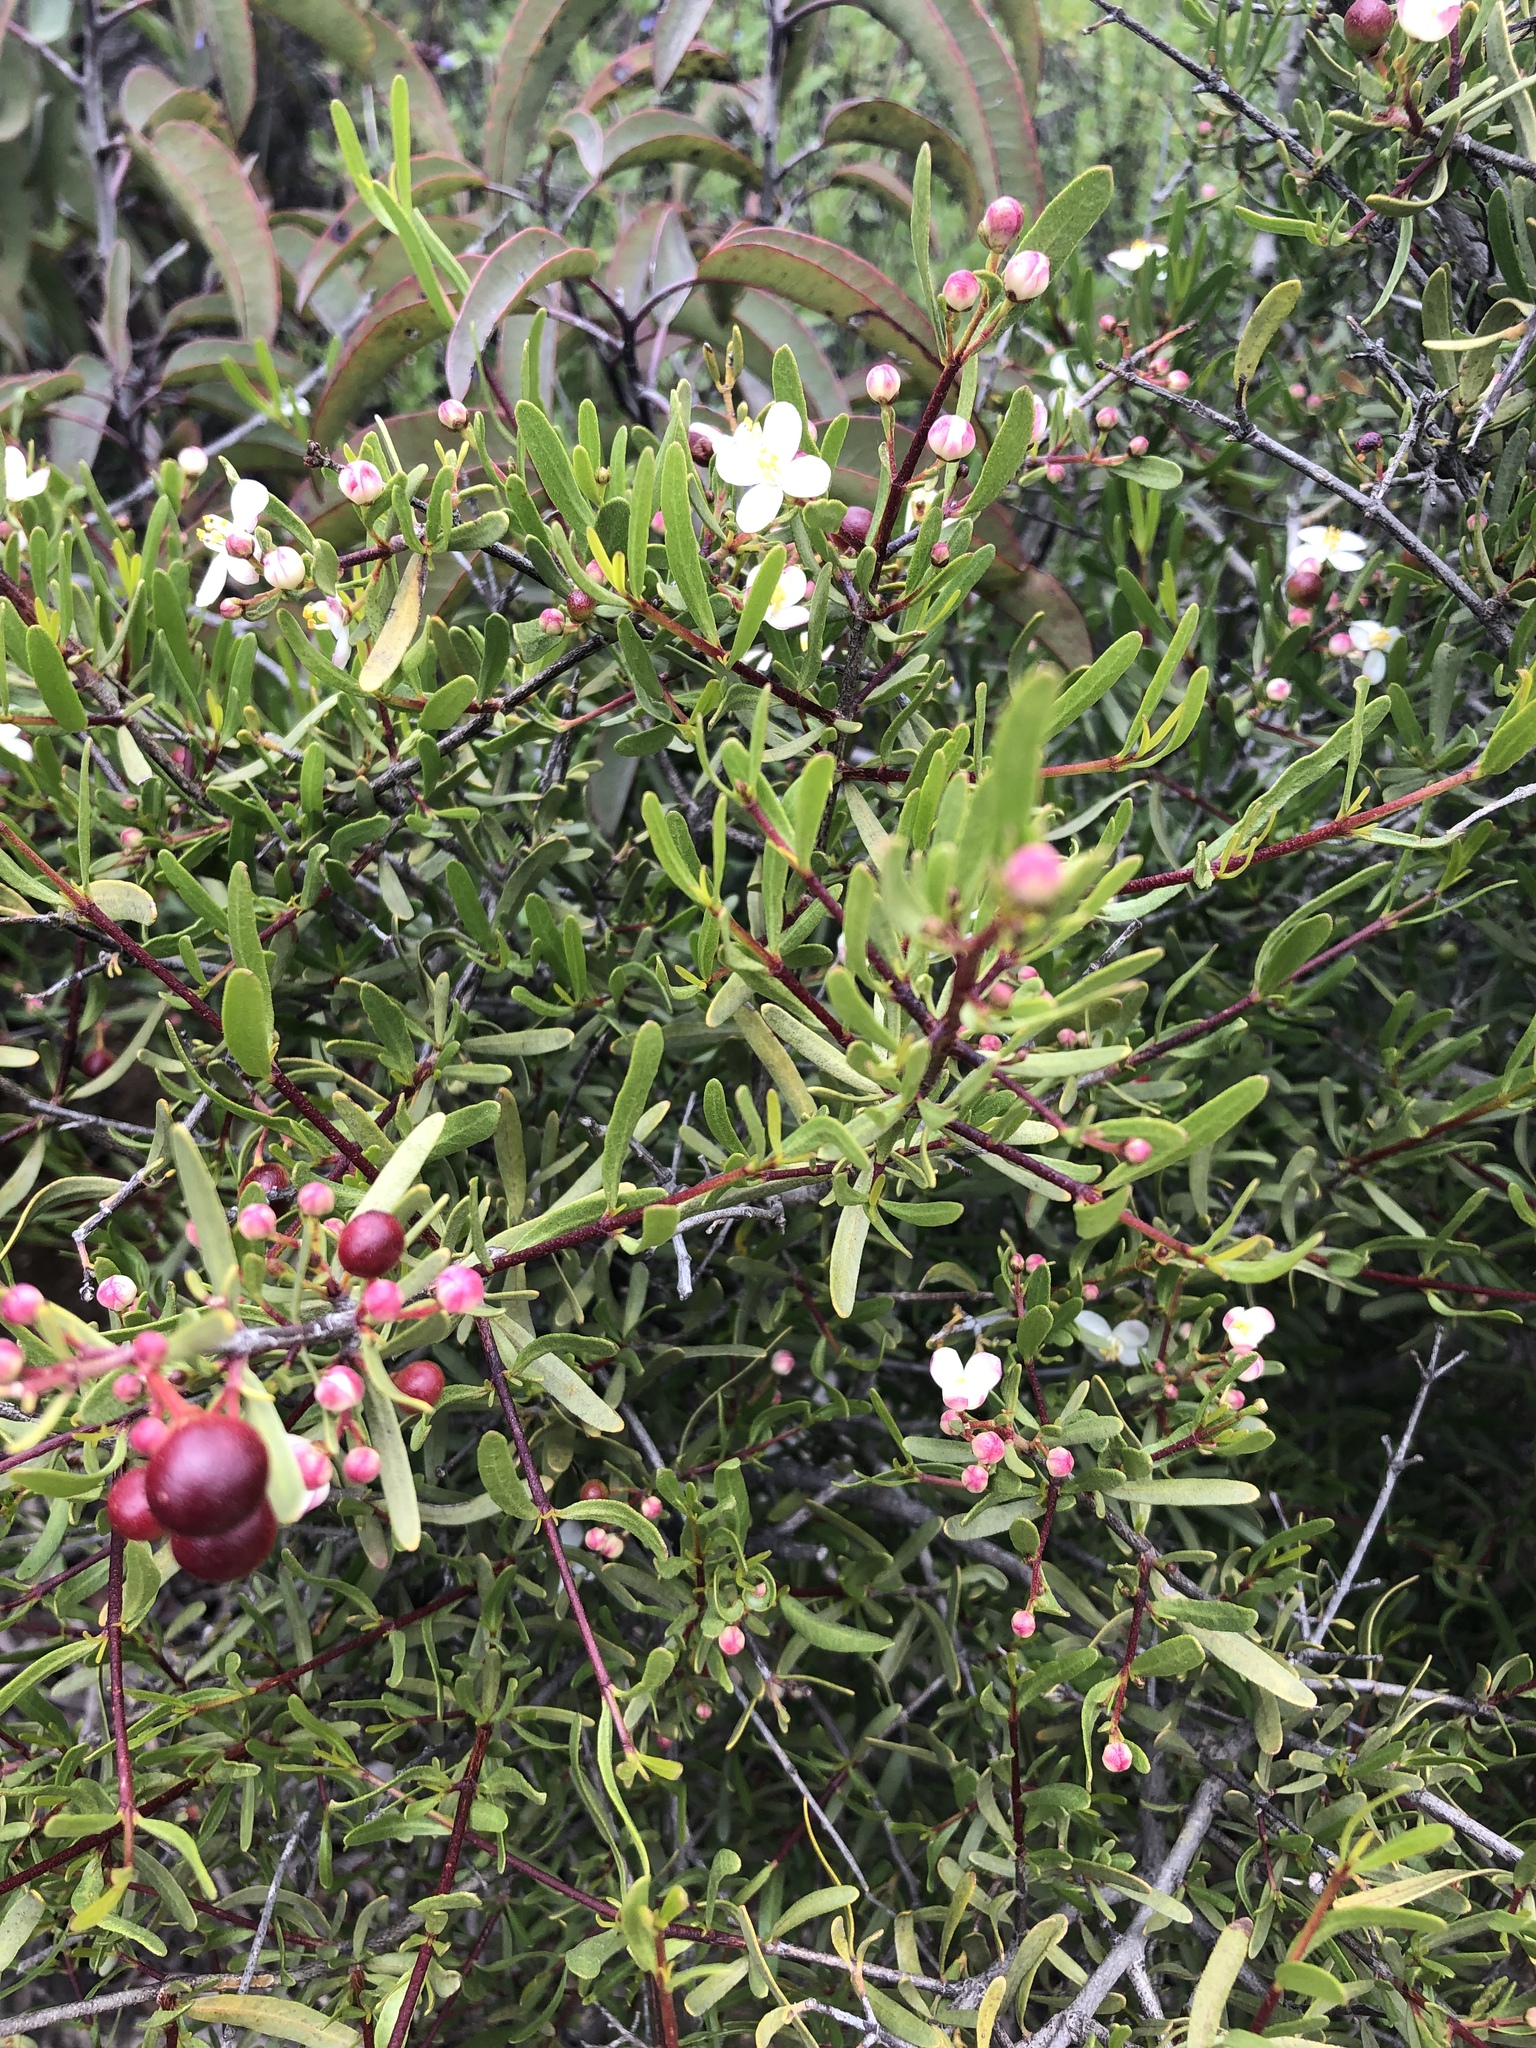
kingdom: Plantae
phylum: Tracheophyta
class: Magnoliopsida
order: Sapindales
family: Rutaceae
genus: Cneoridium
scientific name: Cneoridium dumosum
